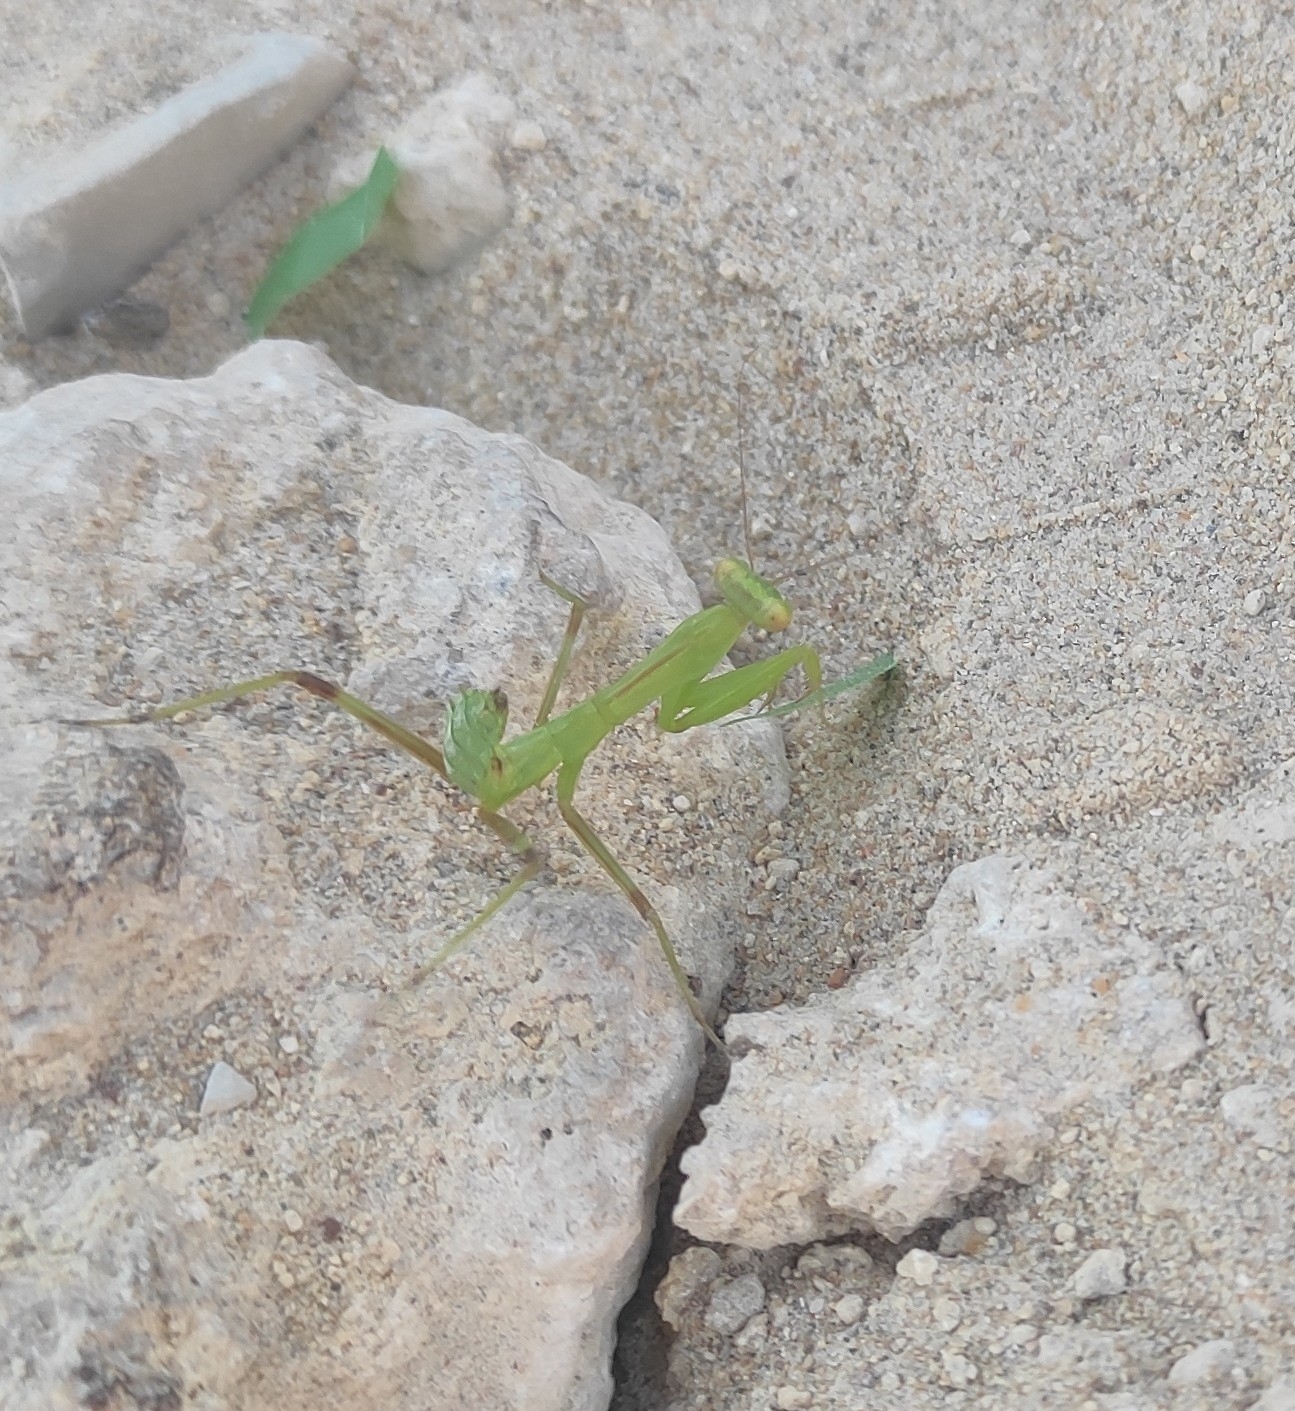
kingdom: Animalia
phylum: Arthropoda
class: Insecta
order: Mantodea
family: Mantidae
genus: Hierodula
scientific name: Hierodula transcaucasica
